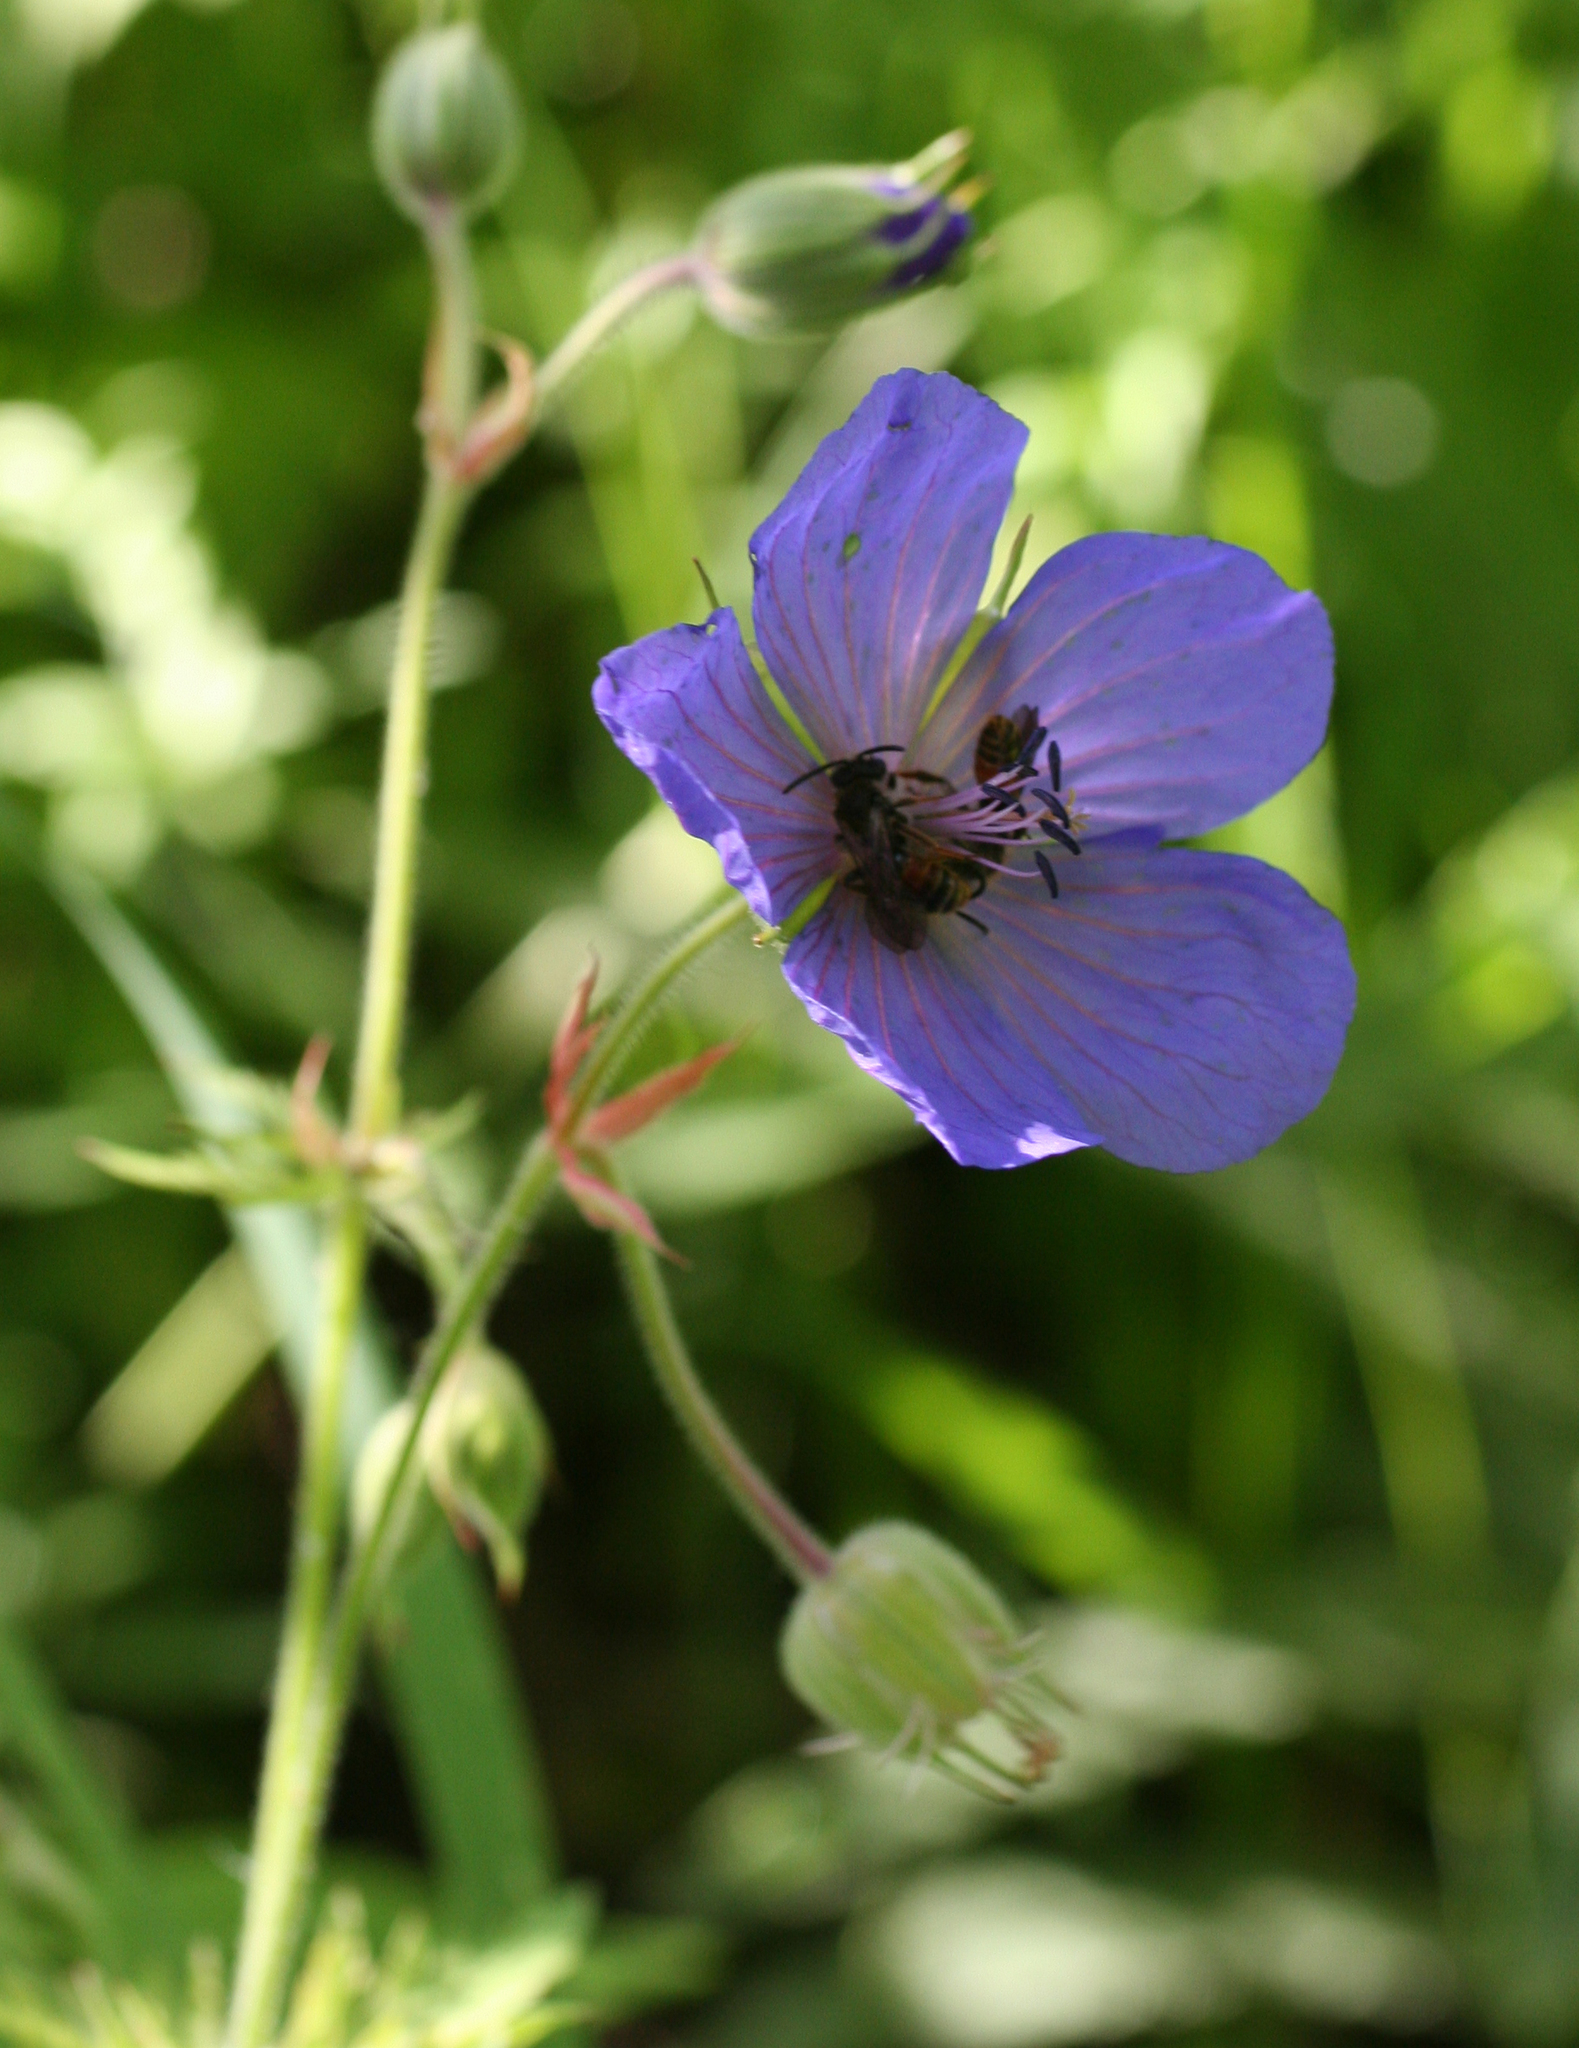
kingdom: Plantae
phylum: Tracheophyta
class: Magnoliopsida
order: Geraniales
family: Geraniaceae
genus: Geranium
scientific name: Geranium pratense
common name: Meadow crane's-bill
